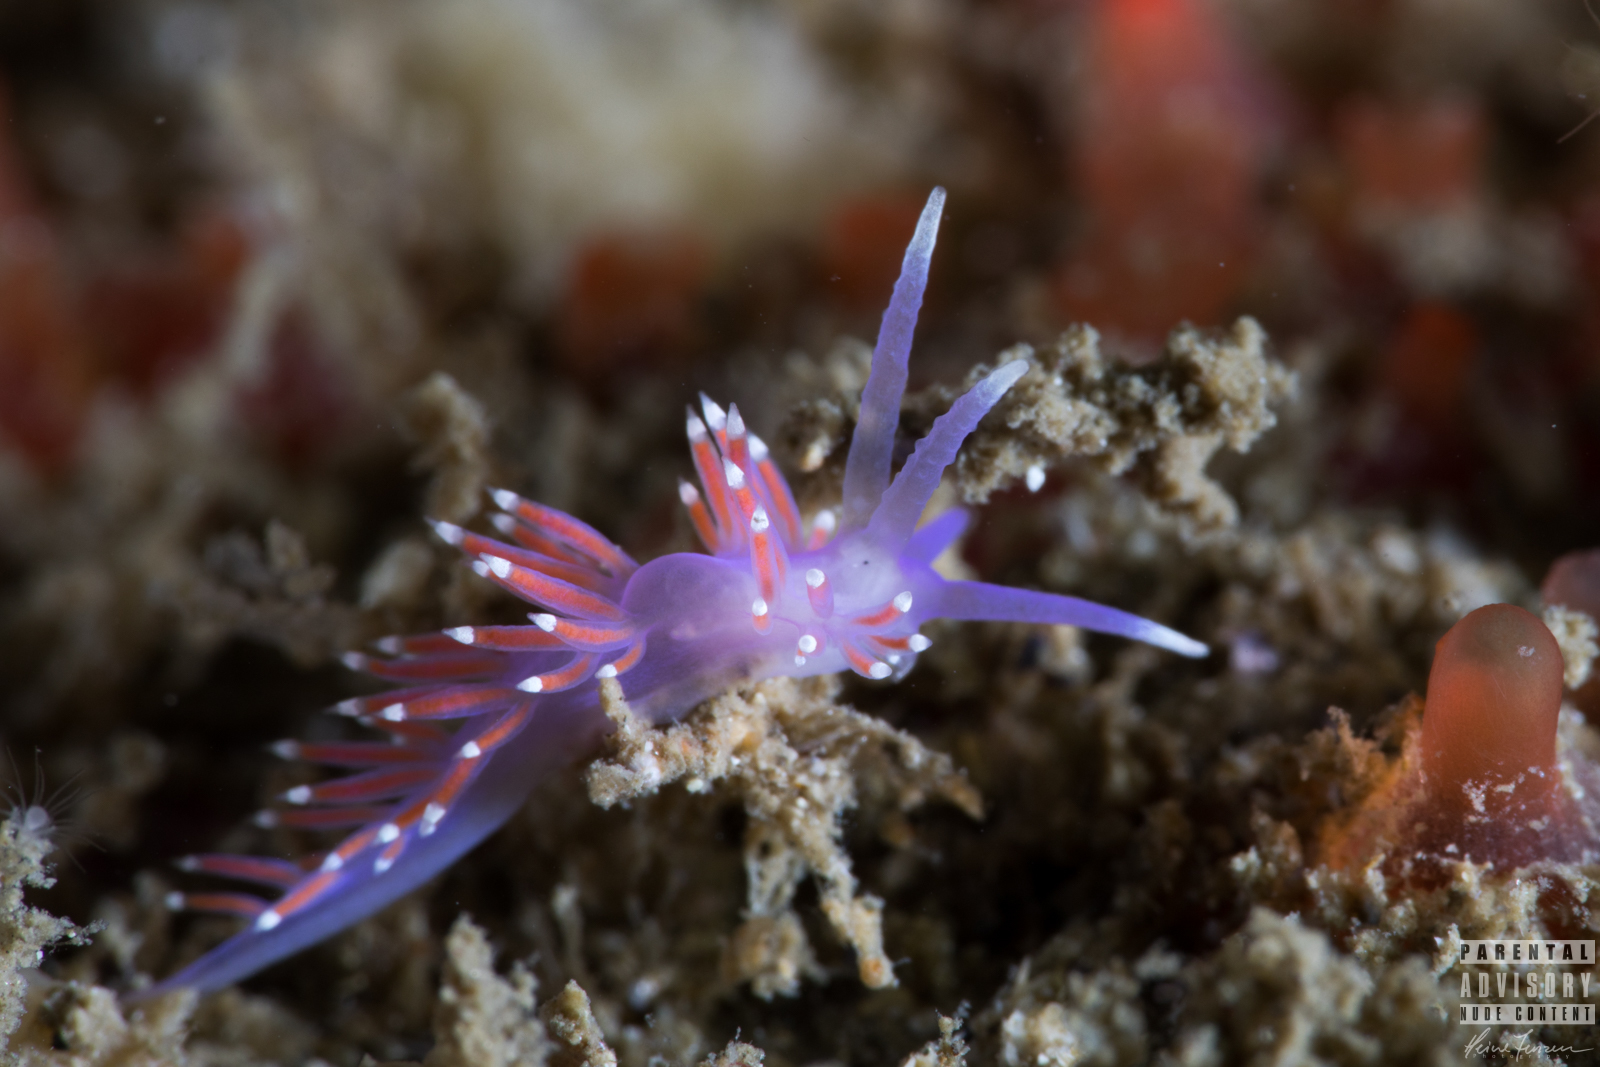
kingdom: Animalia
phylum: Mollusca
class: Gastropoda
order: Nudibranchia
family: Flabellinidae
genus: Edmundsella
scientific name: Edmundsella pedata
